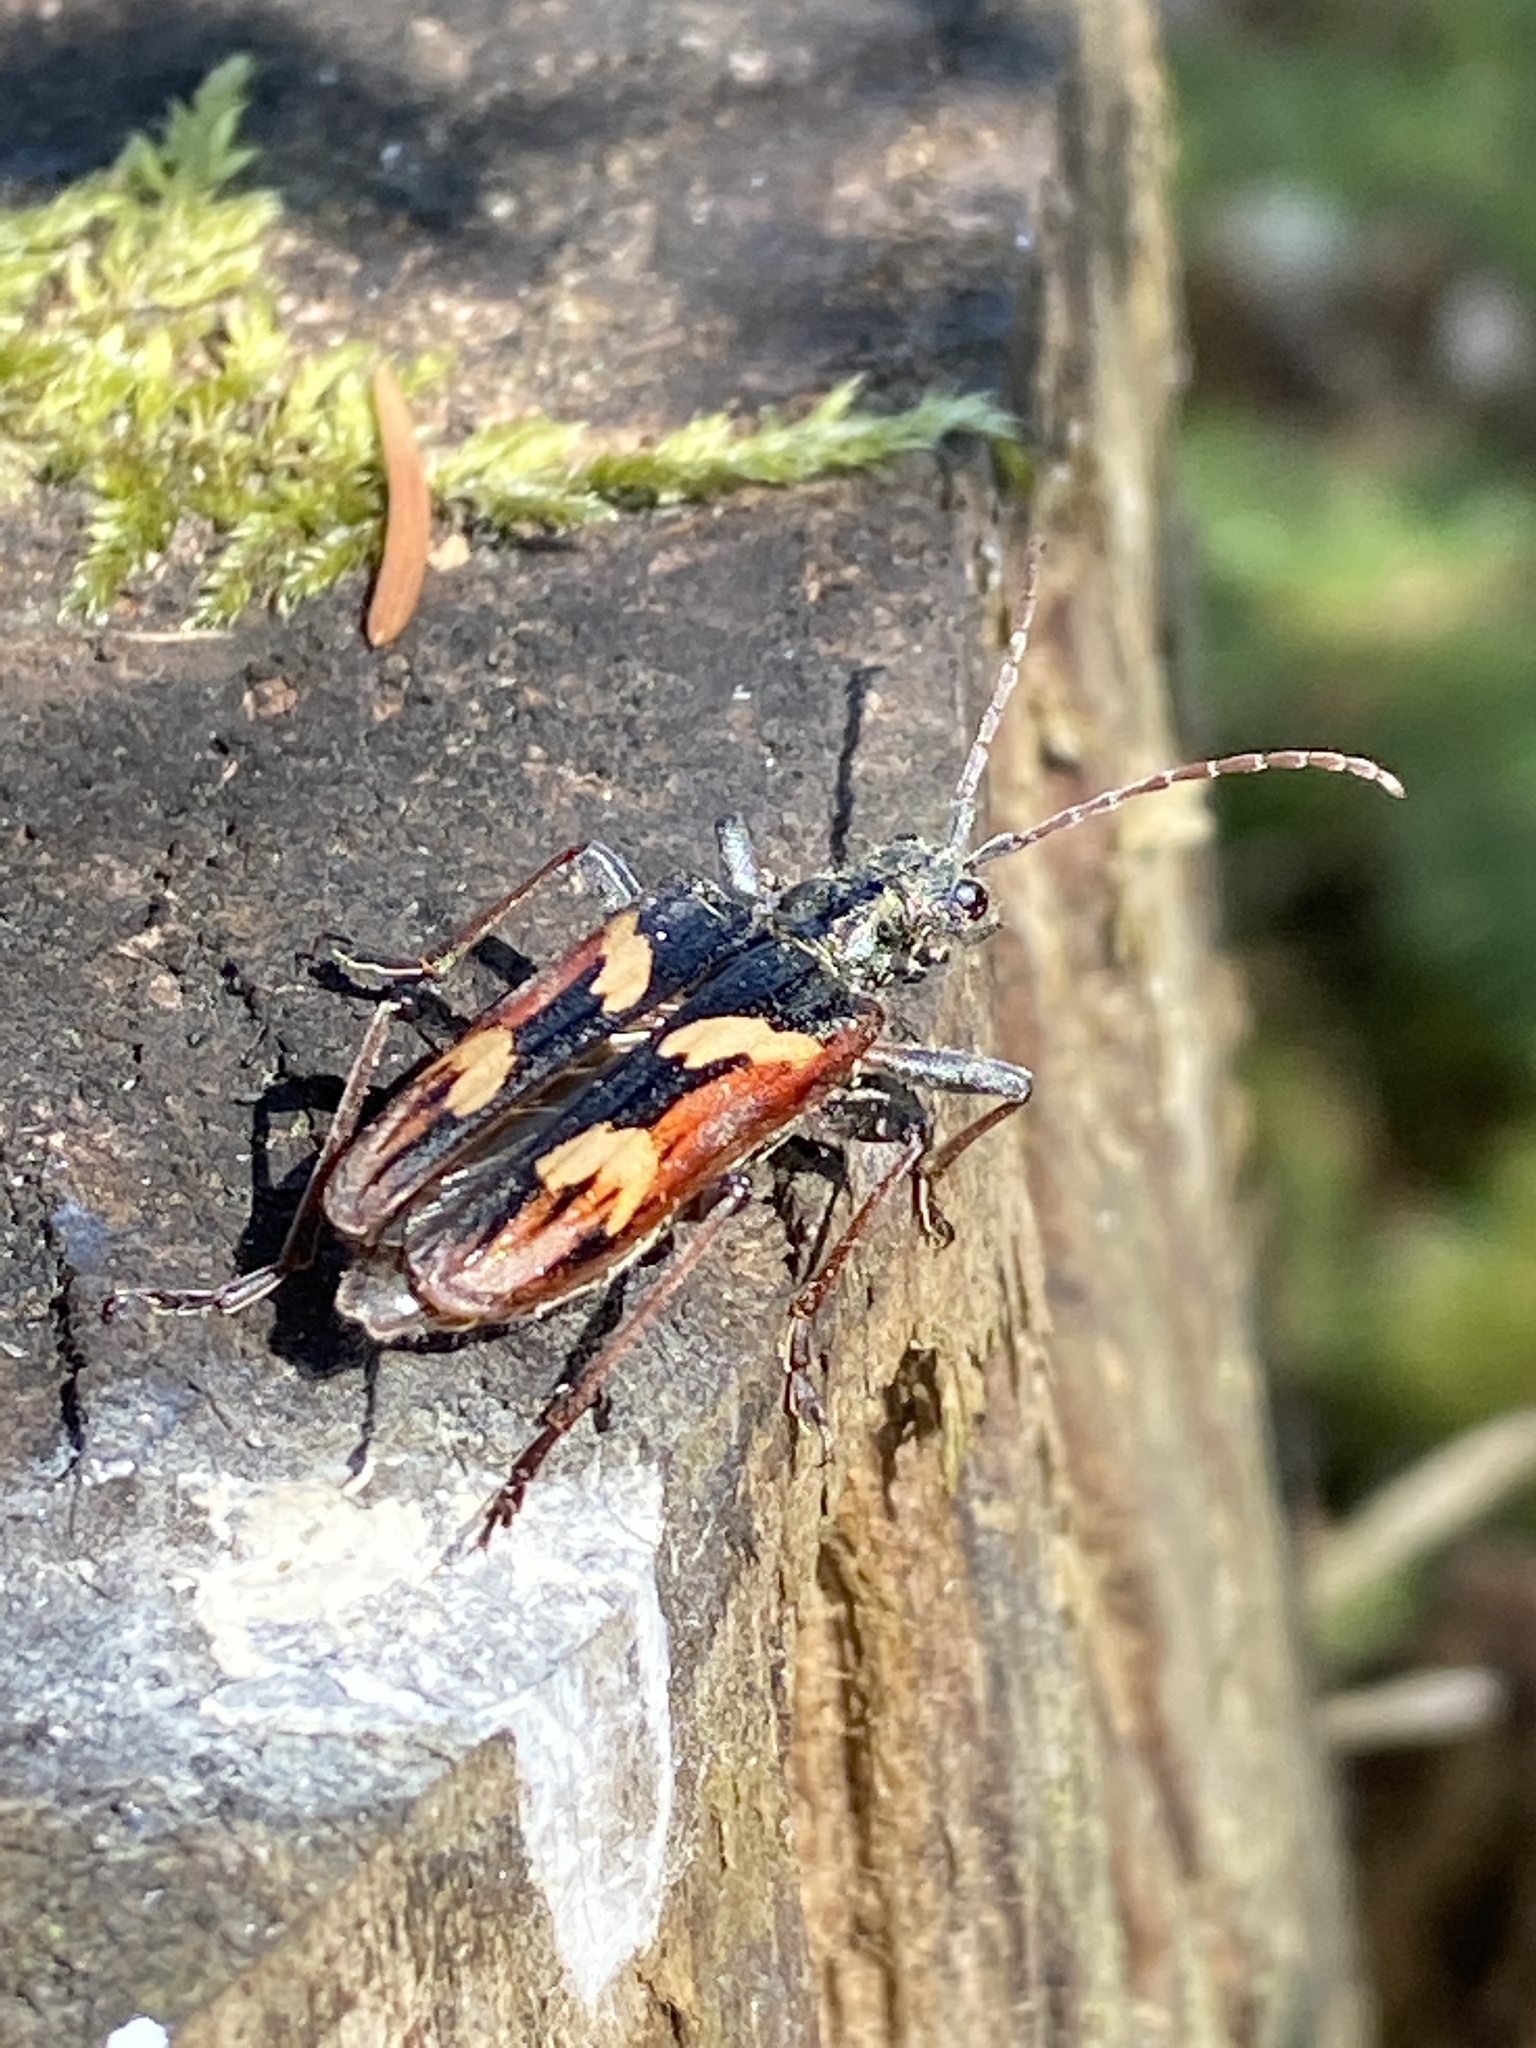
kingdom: Animalia
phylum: Arthropoda
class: Insecta
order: Coleoptera
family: Cerambycidae
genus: Rhagium
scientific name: Rhagium bifasciatum
